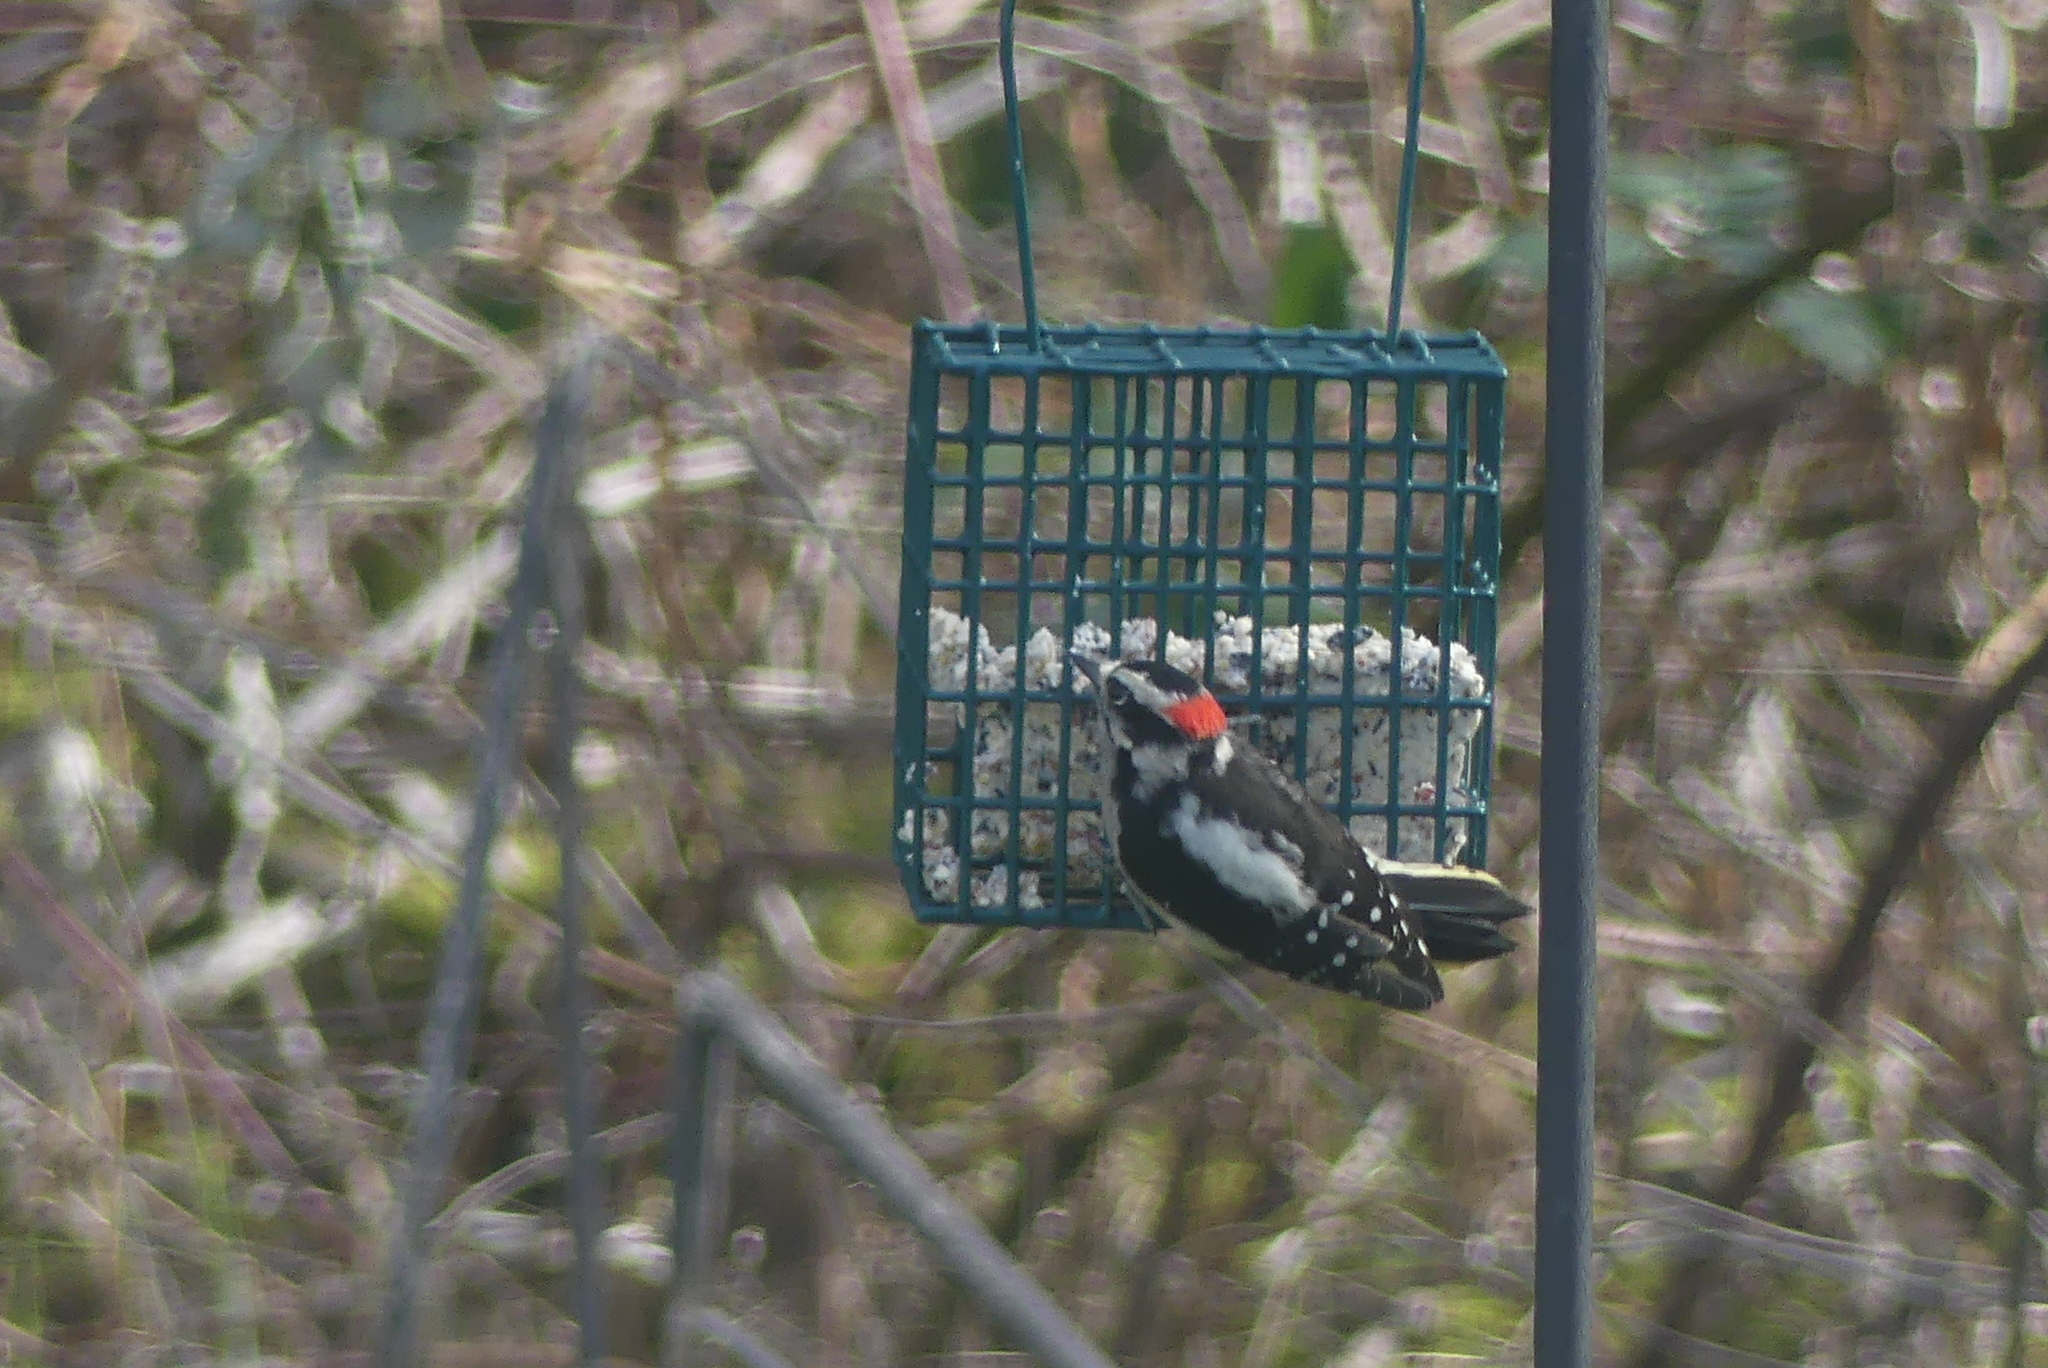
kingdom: Animalia
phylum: Chordata
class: Aves
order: Piciformes
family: Picidae
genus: Dryobates
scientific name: Dryobates pubescens
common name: Downy woodpecker
